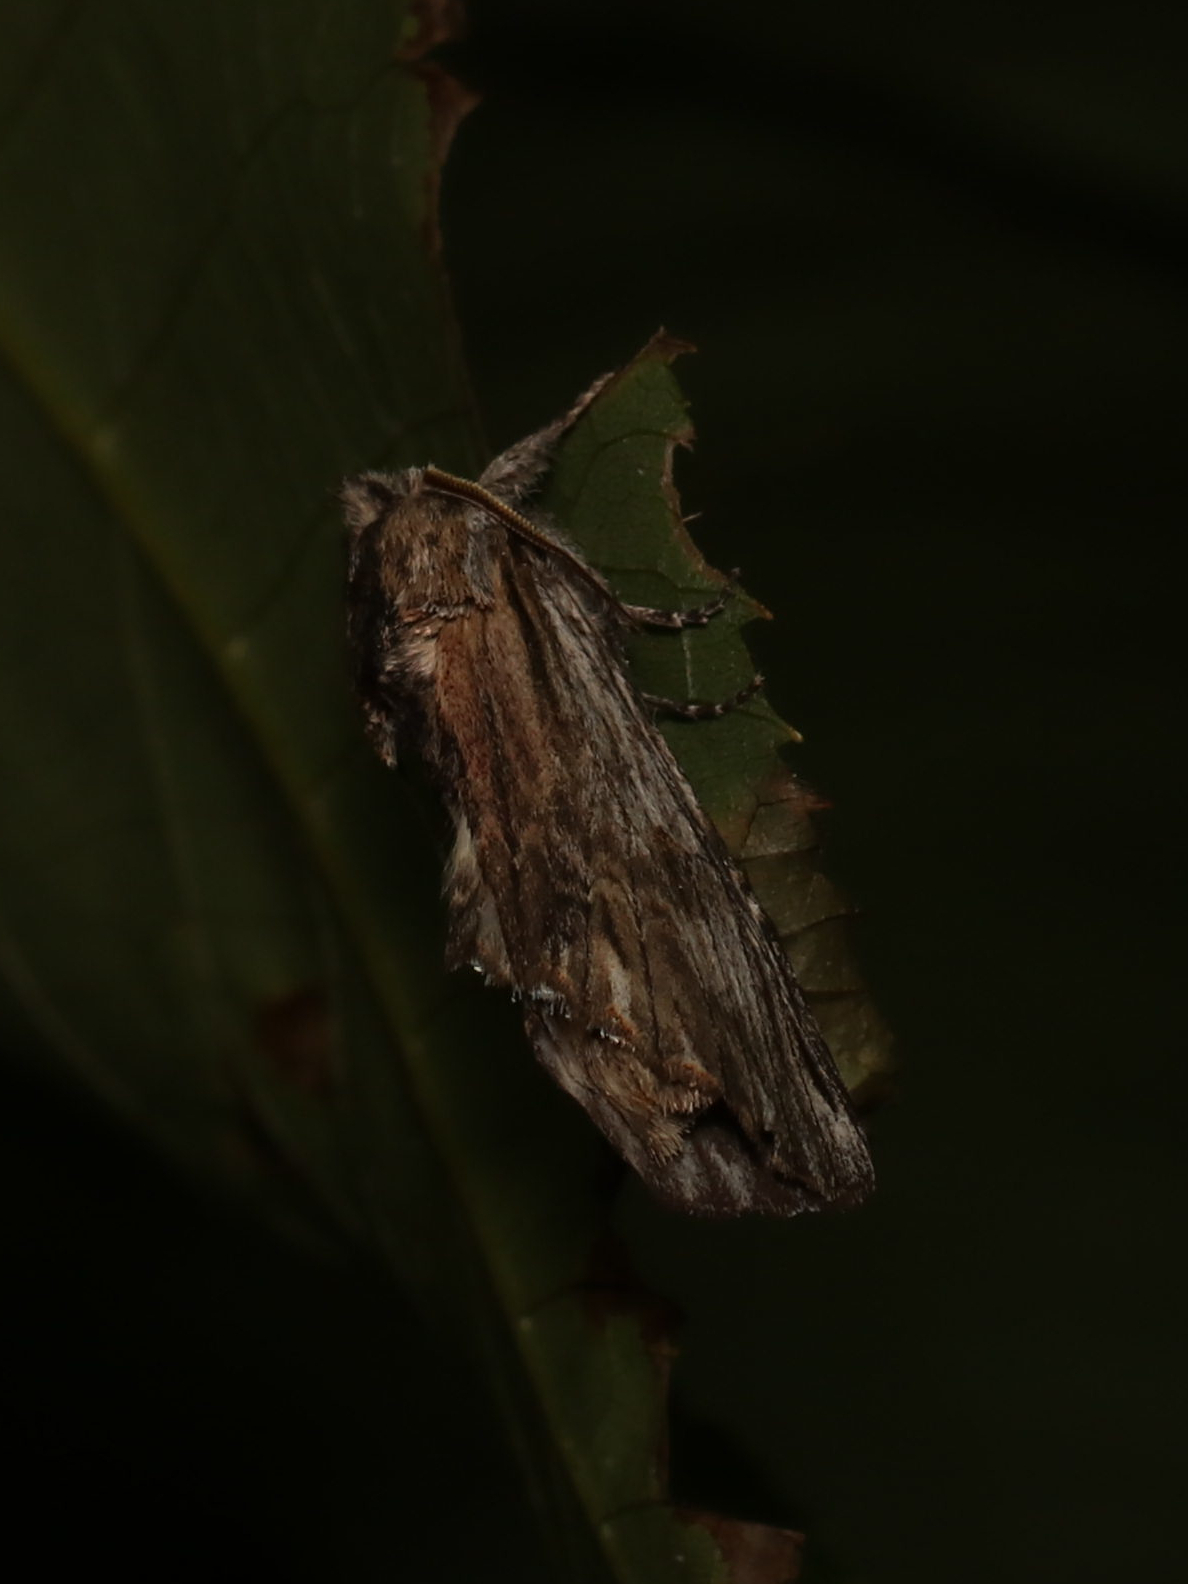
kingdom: Animalia
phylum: Arthropoda
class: Insecta
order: Lepidoptera
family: Notodontidae
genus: Oligocentria
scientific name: Oligocentria Ianassa lignicolor
